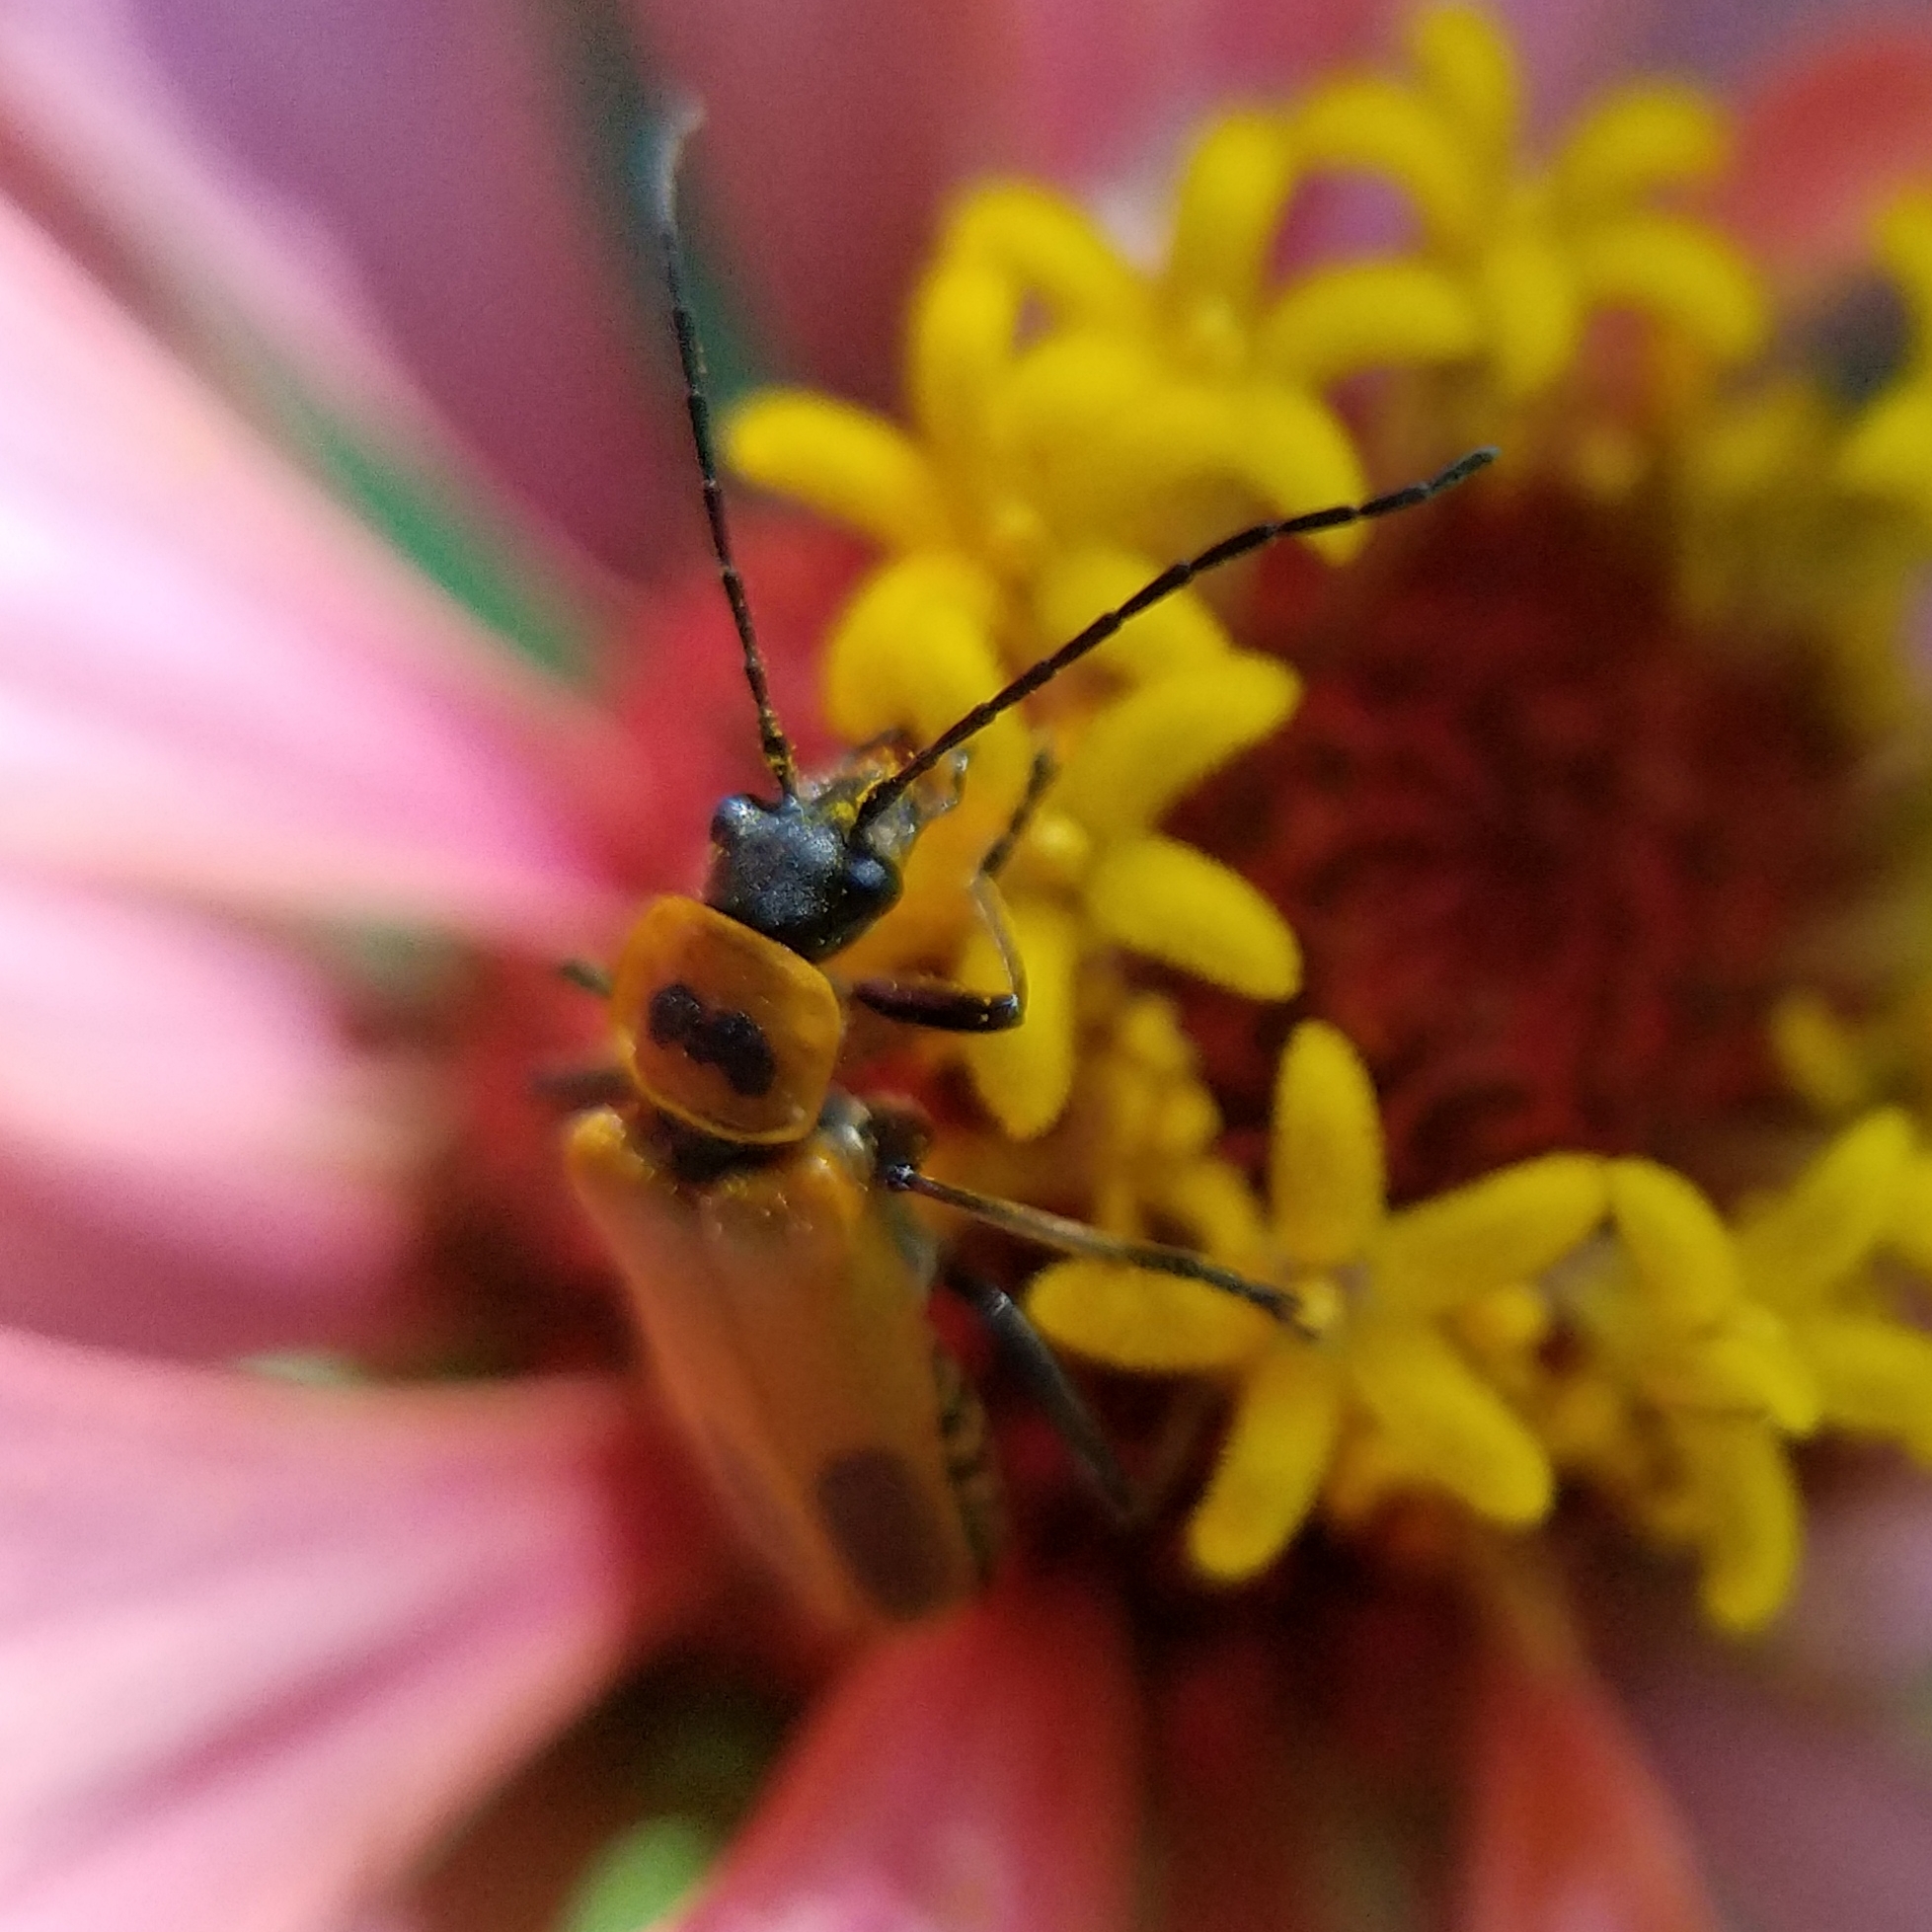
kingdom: Animalia
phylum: Arthropoda
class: Insecta
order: Coleoptera
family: Cantharidae
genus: Chauliognathus
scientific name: Chauliognathus pensylvanicus
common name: Goldenrod soldier beetle
